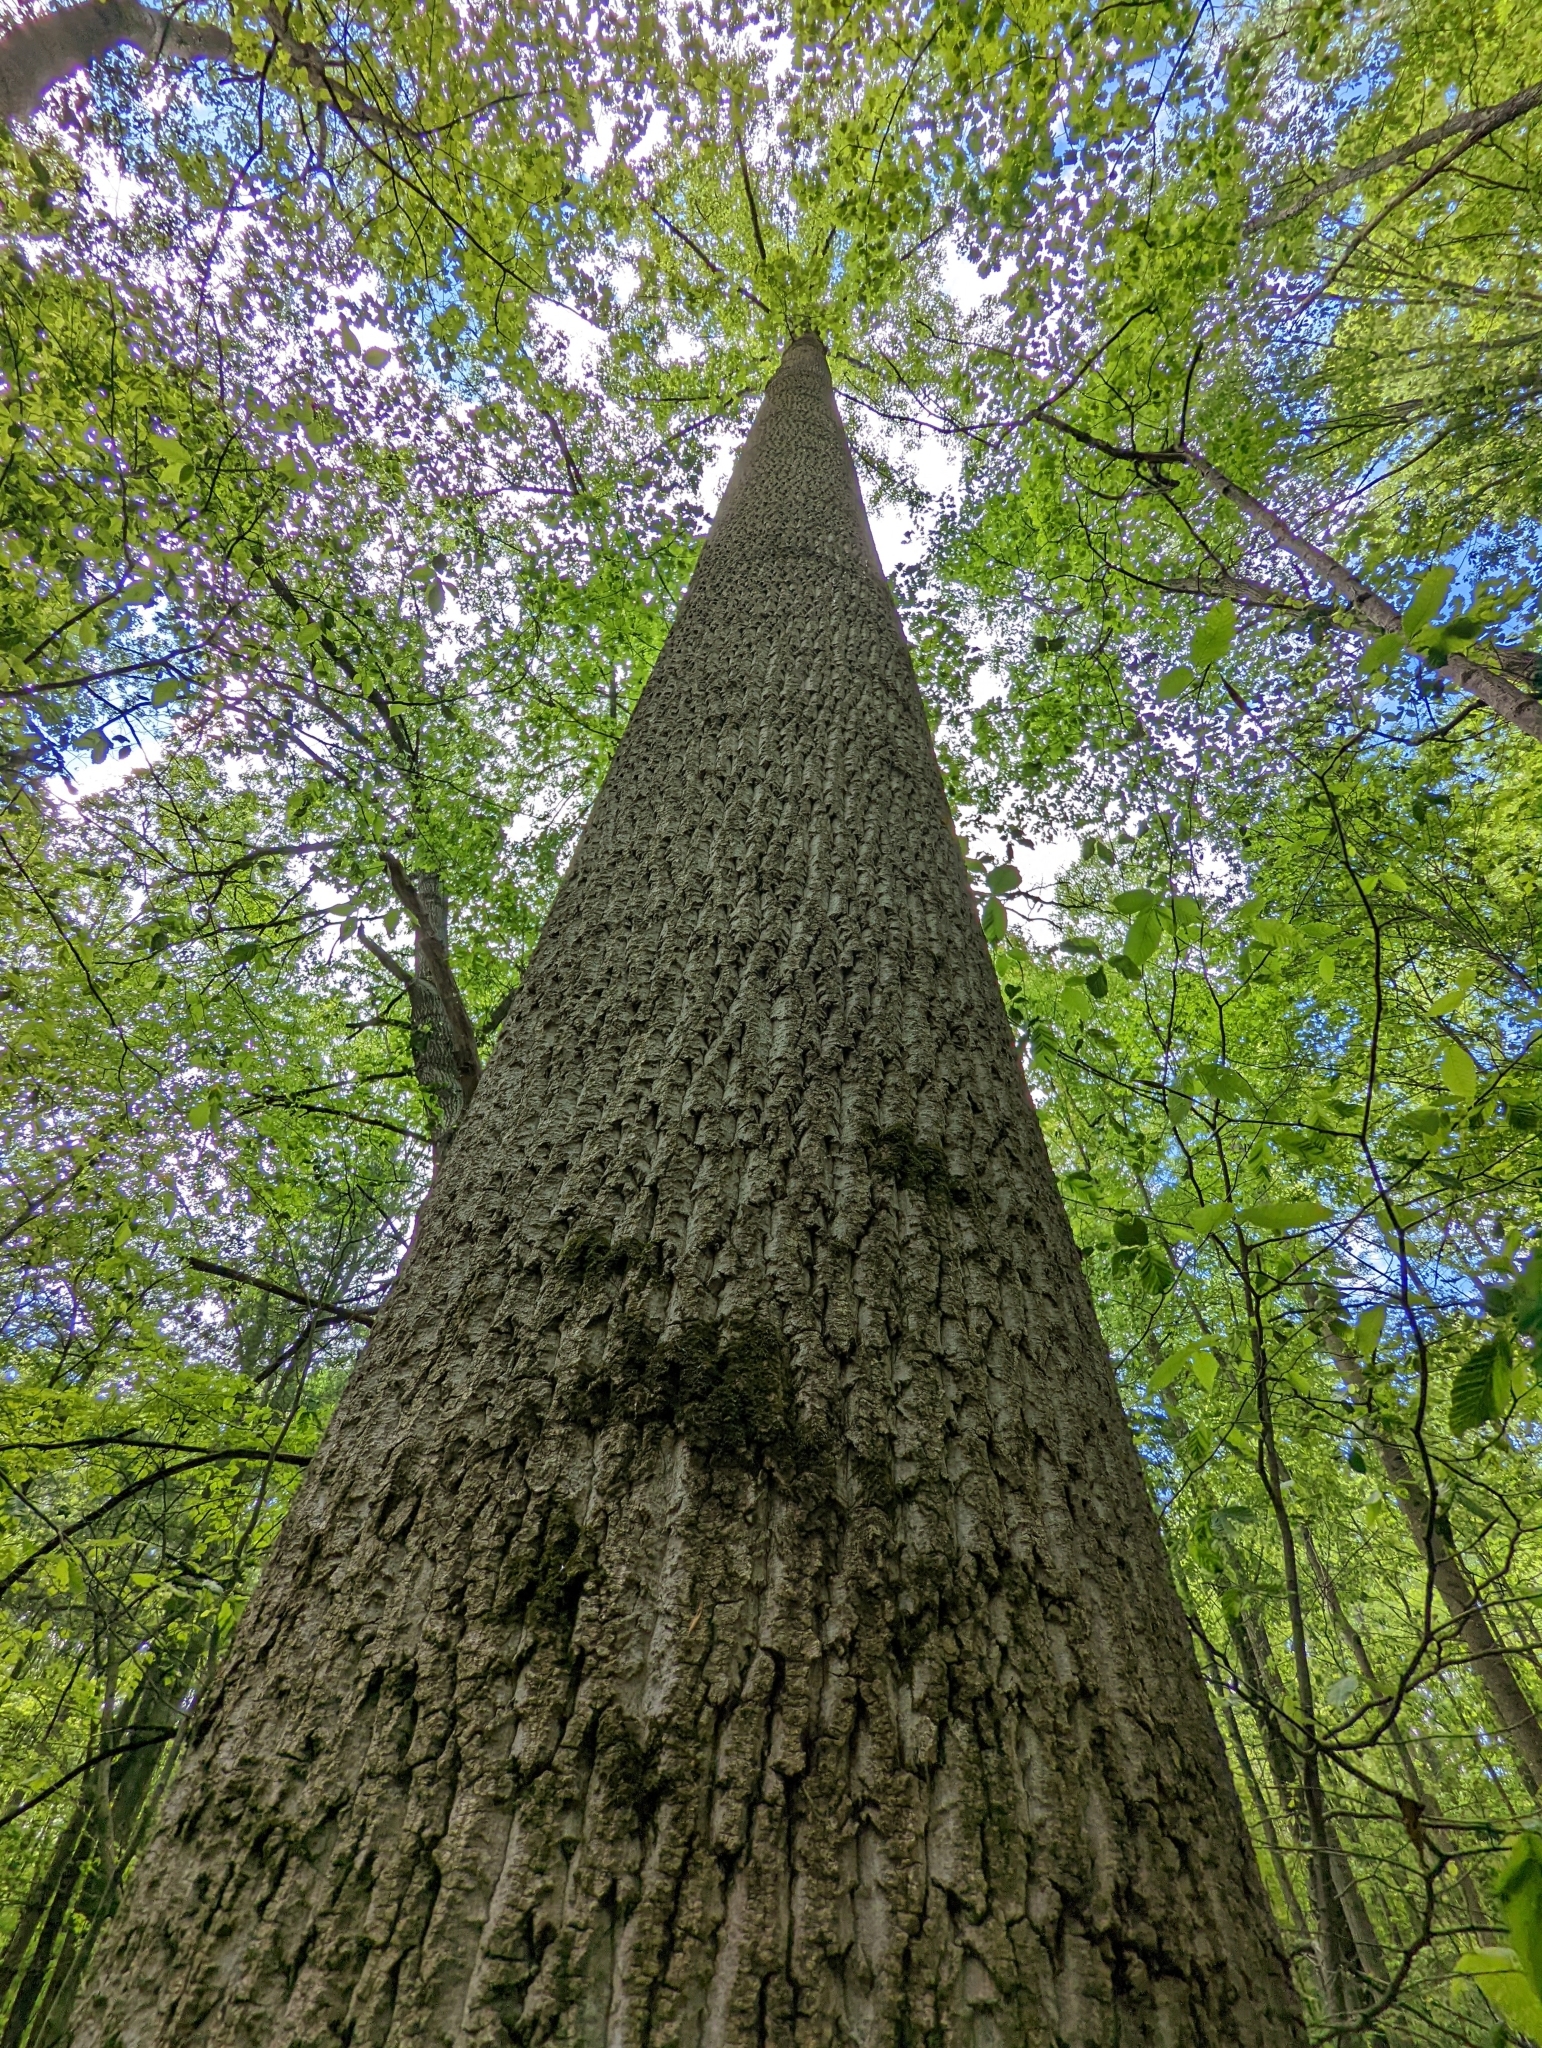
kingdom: Plantae
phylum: Tracheophyta
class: Magnoliopsida
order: Magnoliales
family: Magnoliaceae
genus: Liriodendron
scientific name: Liriodendron tulipifera
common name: Tulip tree
